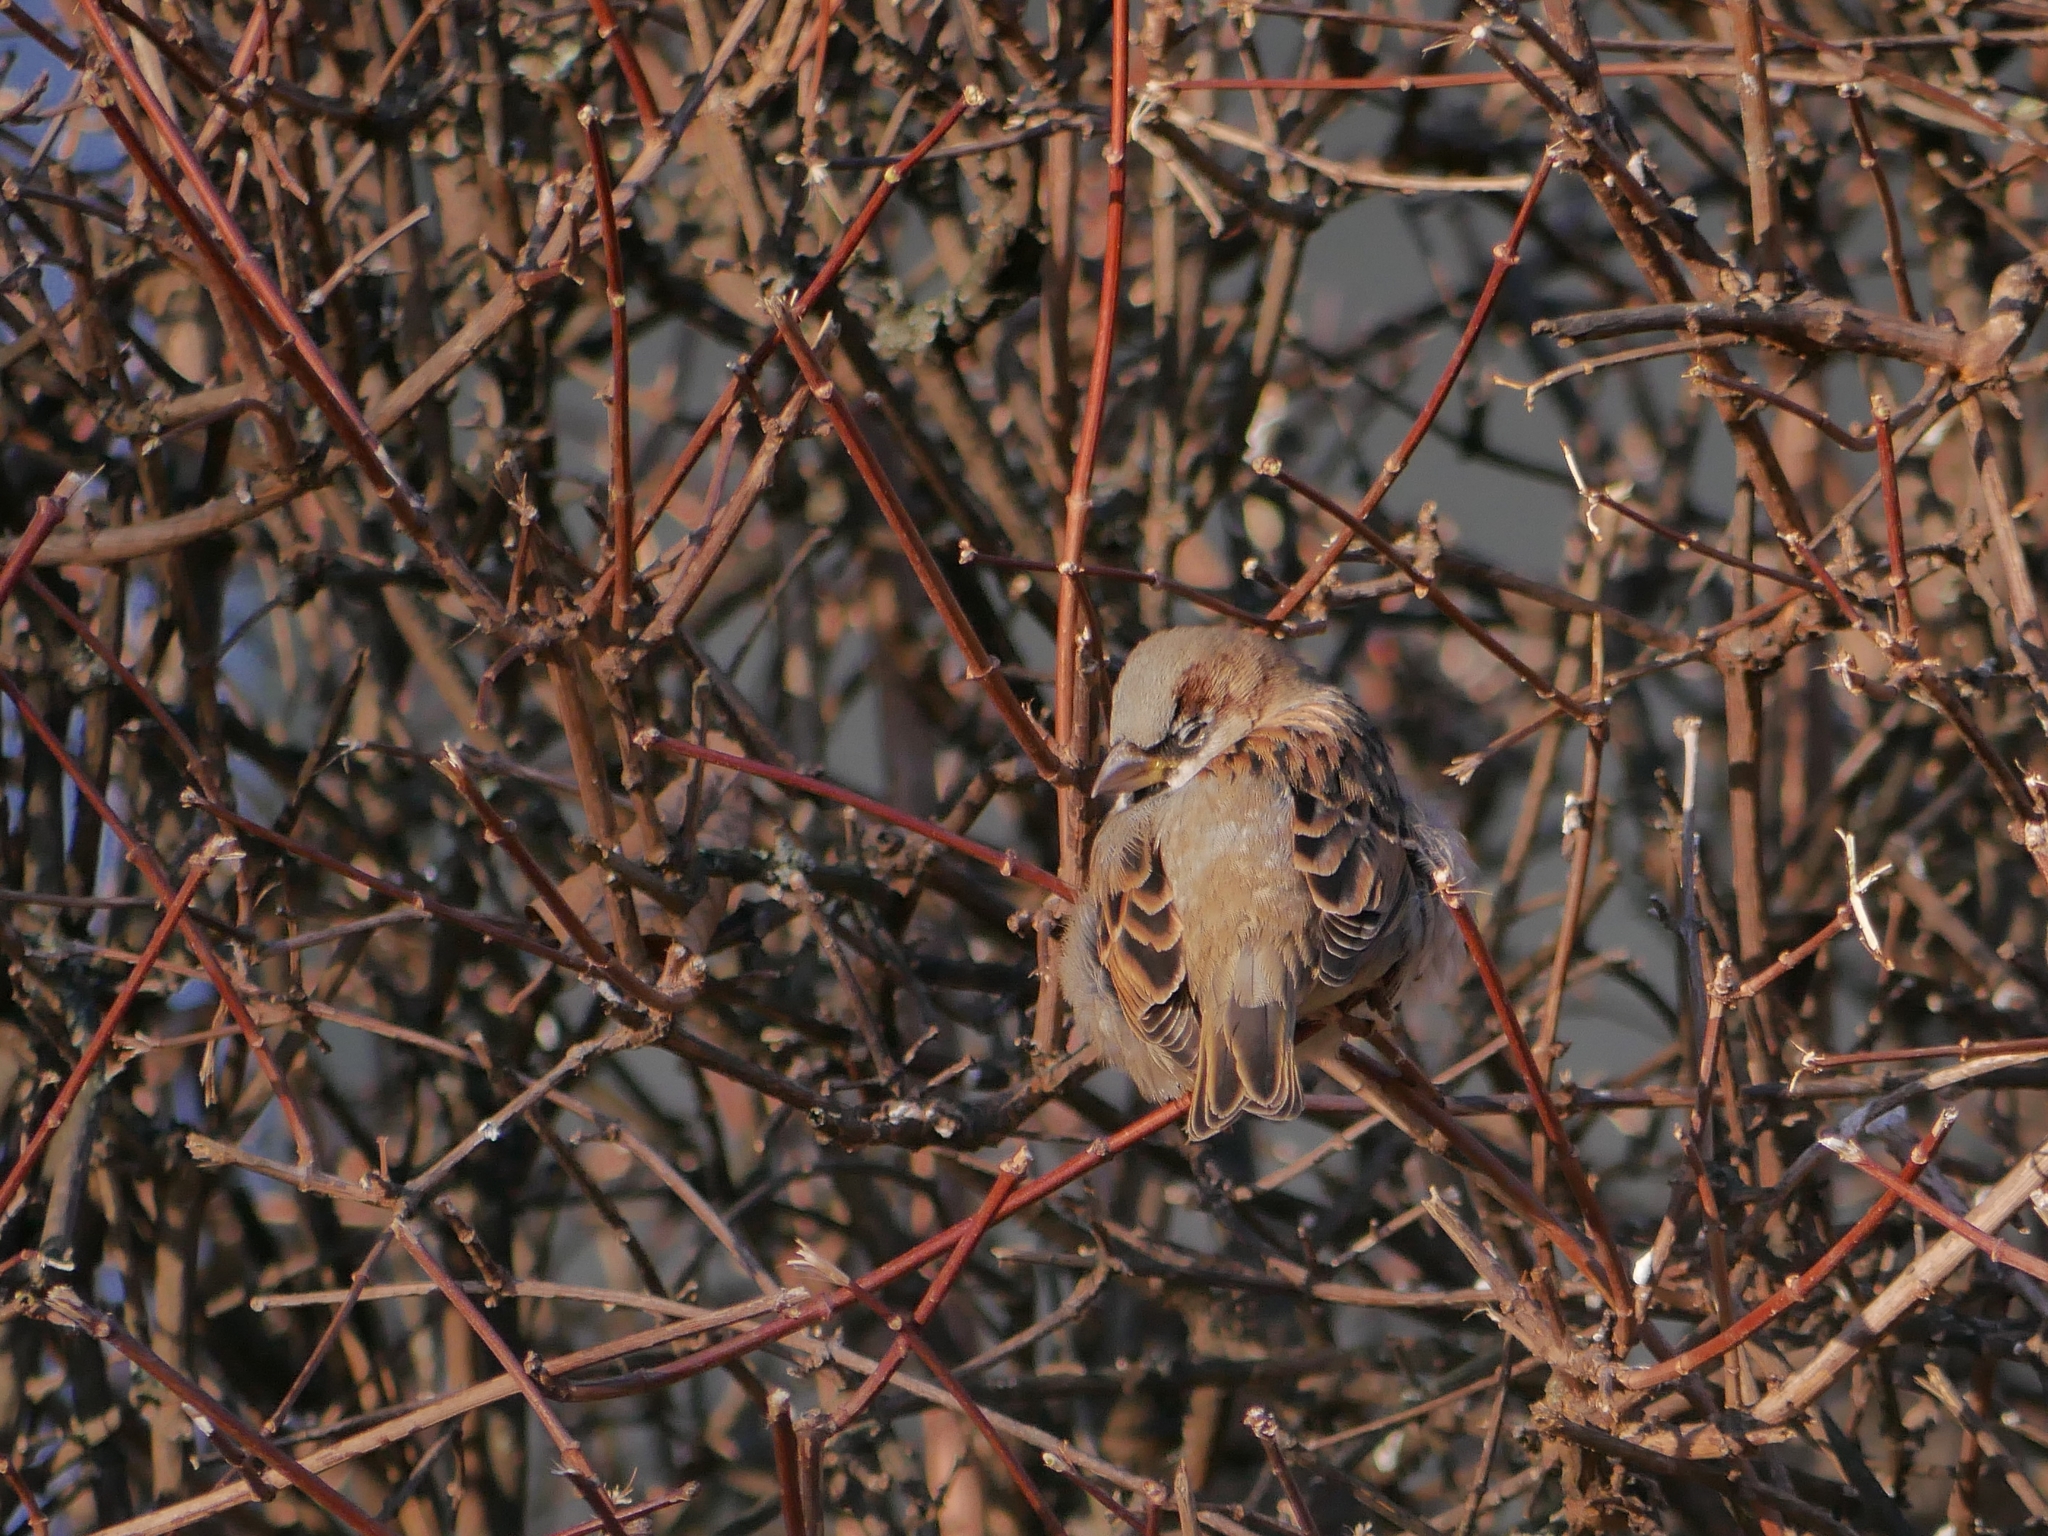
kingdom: Animalia
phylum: Chordata
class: Aves
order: Passeriformes
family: Passeridae
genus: Passer
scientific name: Passer domesticus
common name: House sparrow
